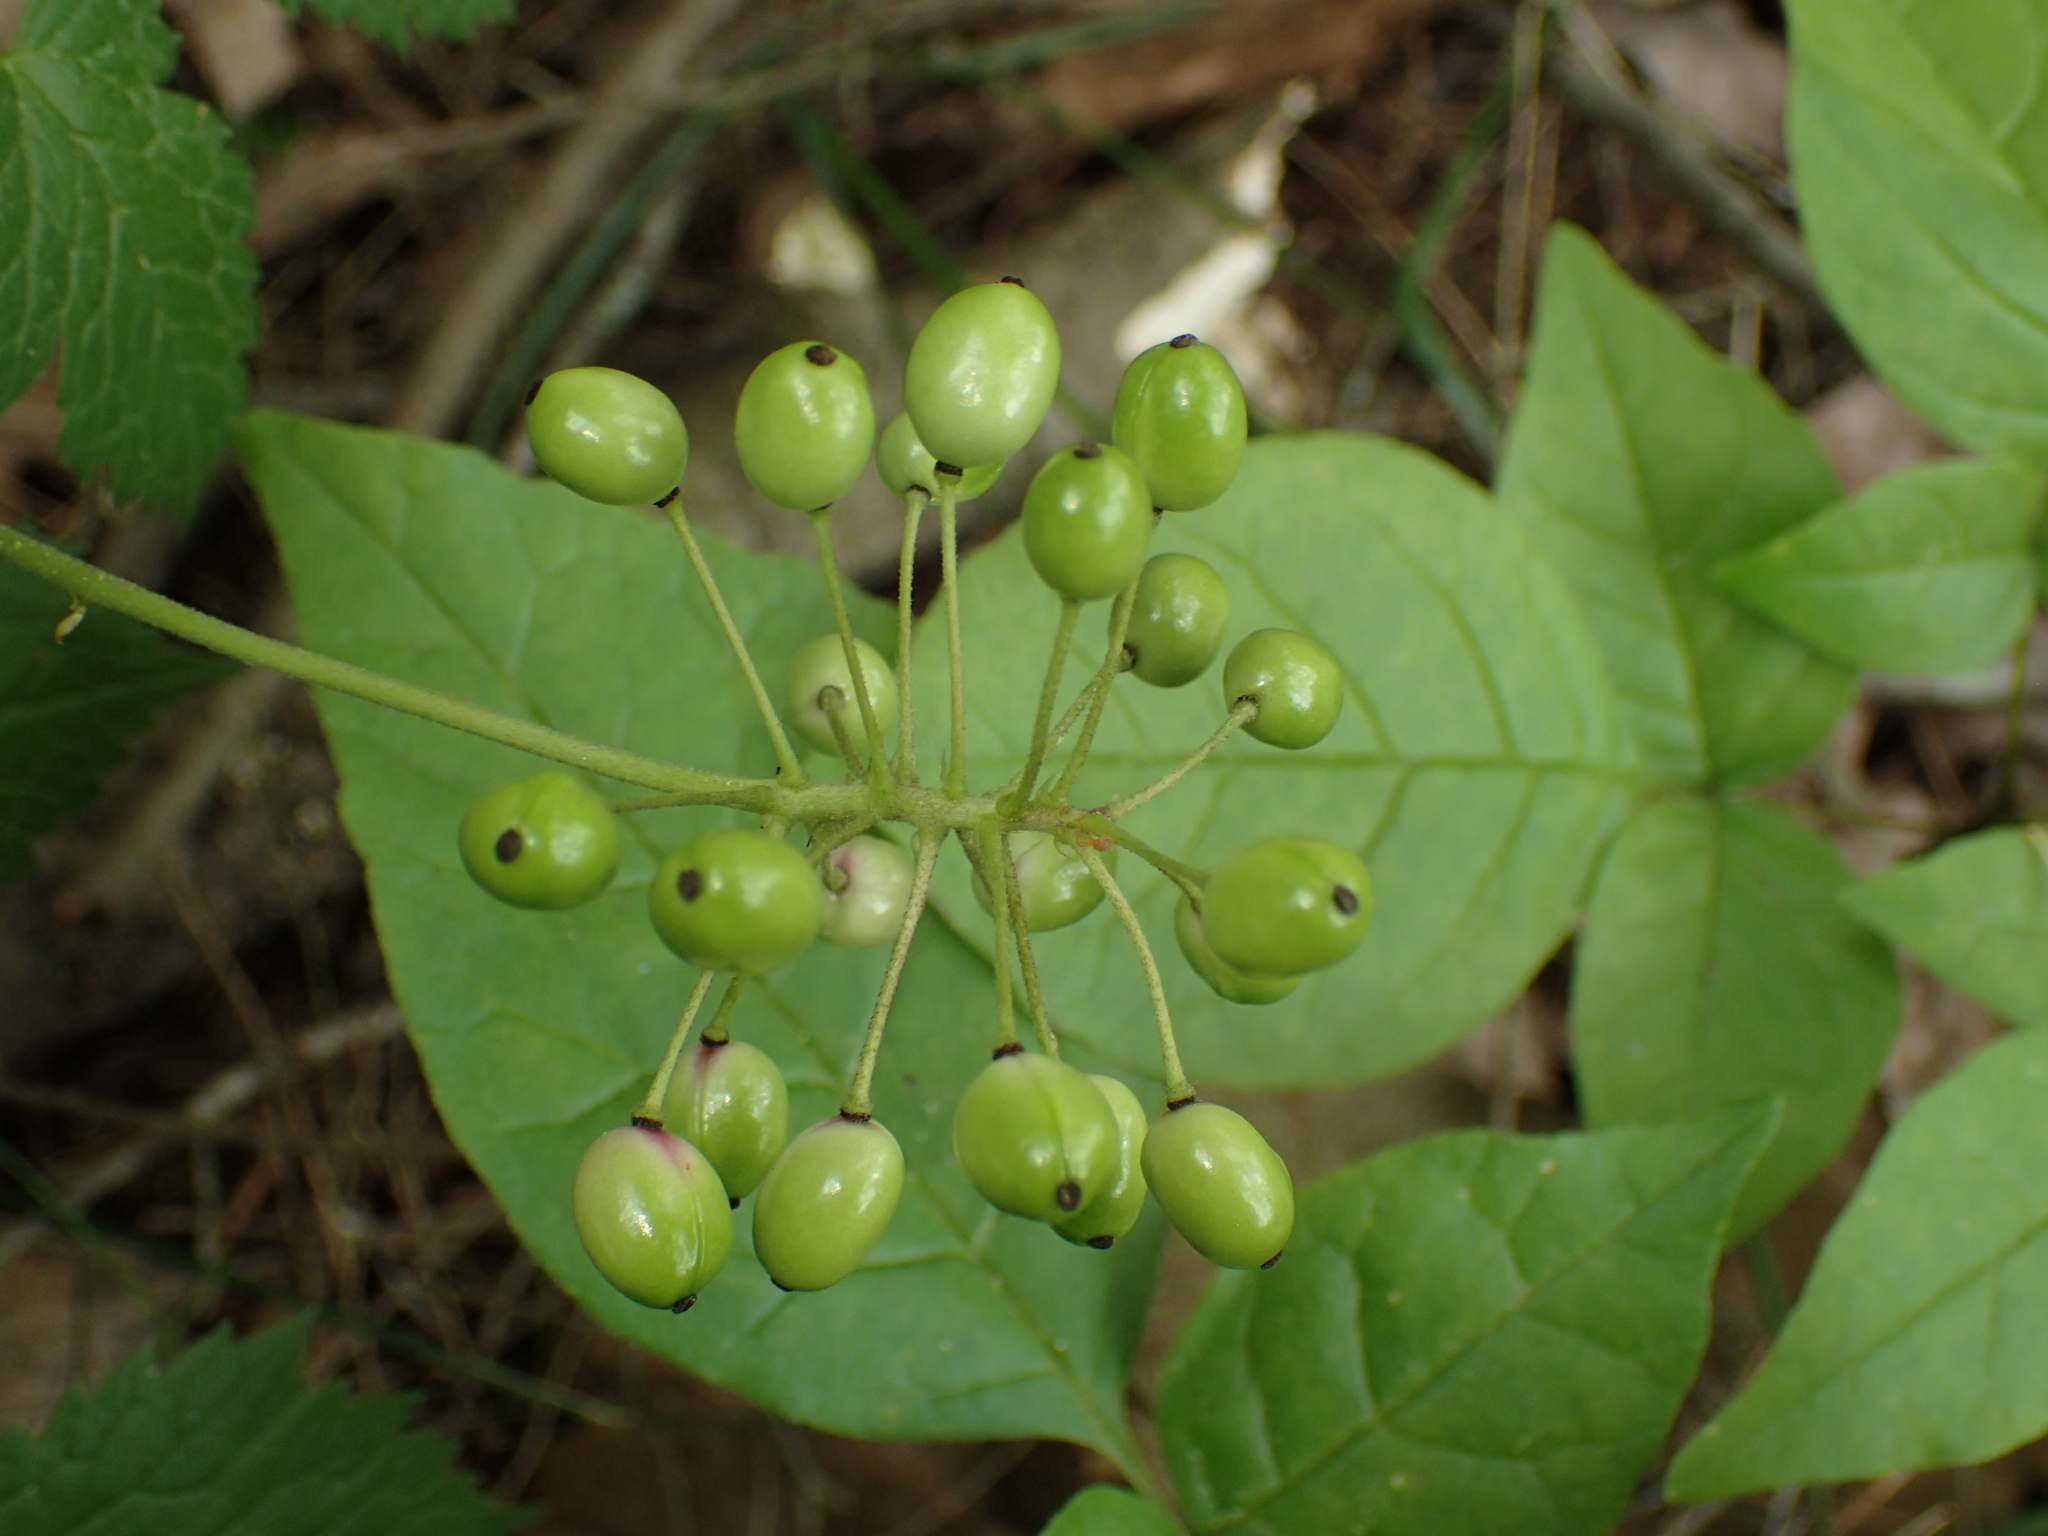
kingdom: Plantae
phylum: Tracheophyta
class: Magnoliopsida
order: Ranunculales
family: Ranunculaceae
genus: Actaea
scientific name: Actaea rubra
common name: Red baneberry
